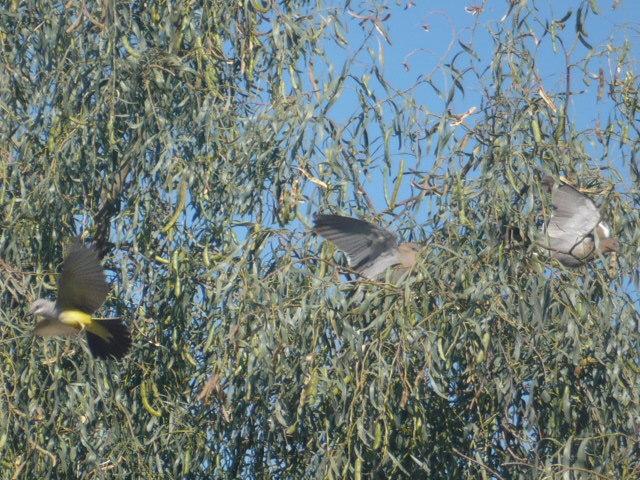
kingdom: Animalia
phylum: Chordata
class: Aves
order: Passeriformes
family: Tyrannidae
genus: Tyrannus
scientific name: Tyrannus verticalis
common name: Western kingbird
